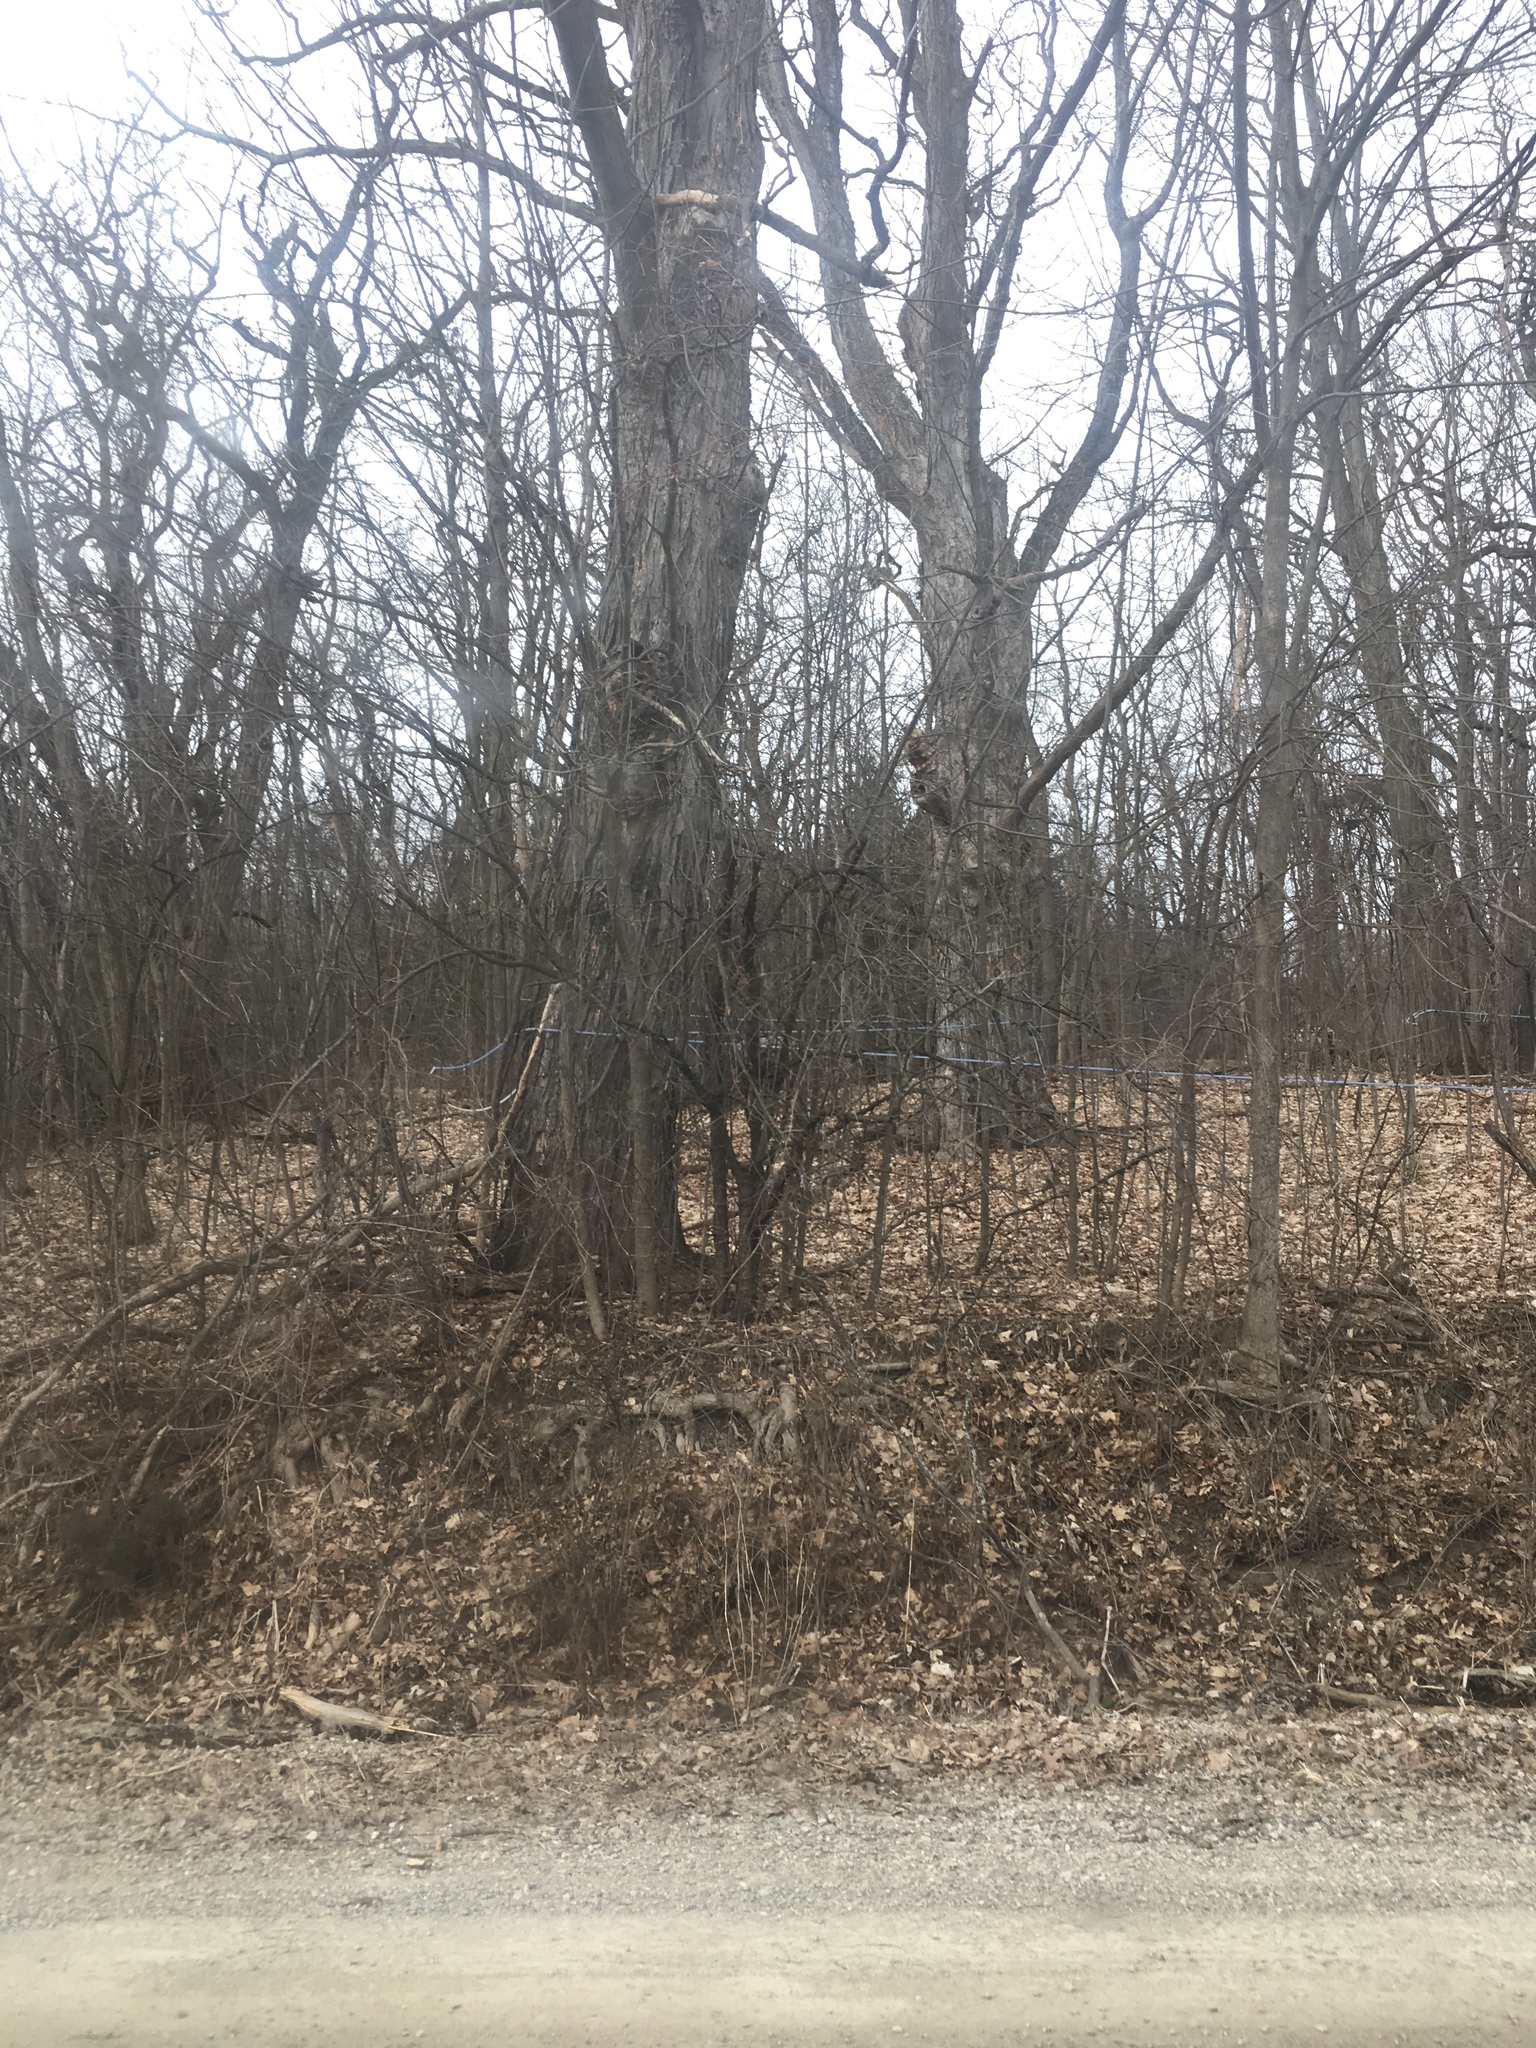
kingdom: Plantae
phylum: Tracheophyta
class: Magnoliopsida
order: Sapindales
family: Sapindaceae
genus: Acer
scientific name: Acer saccharum
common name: Sugar maple
